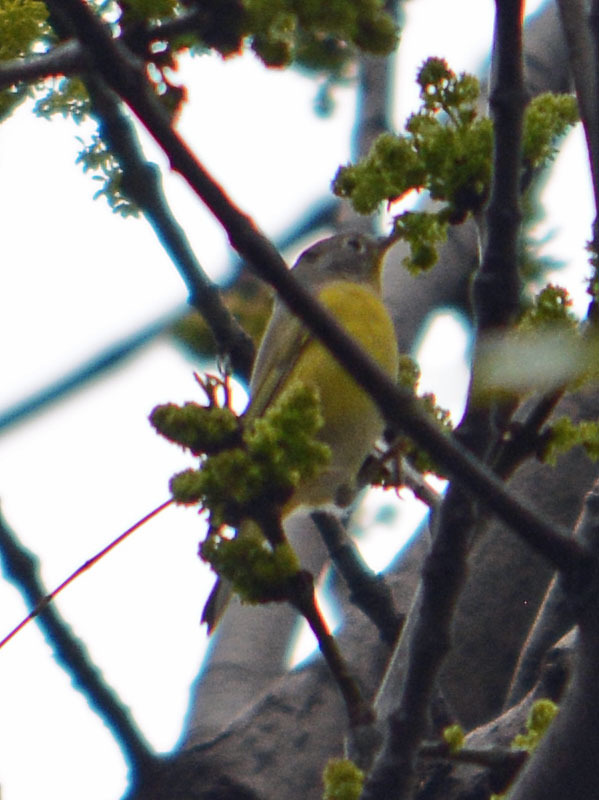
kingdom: Animalia
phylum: Chordata
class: Aves
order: Passeriformes
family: Parulidae
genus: Leiothlypis
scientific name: Leiothlypis ruficapilla
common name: Nashville warbler
